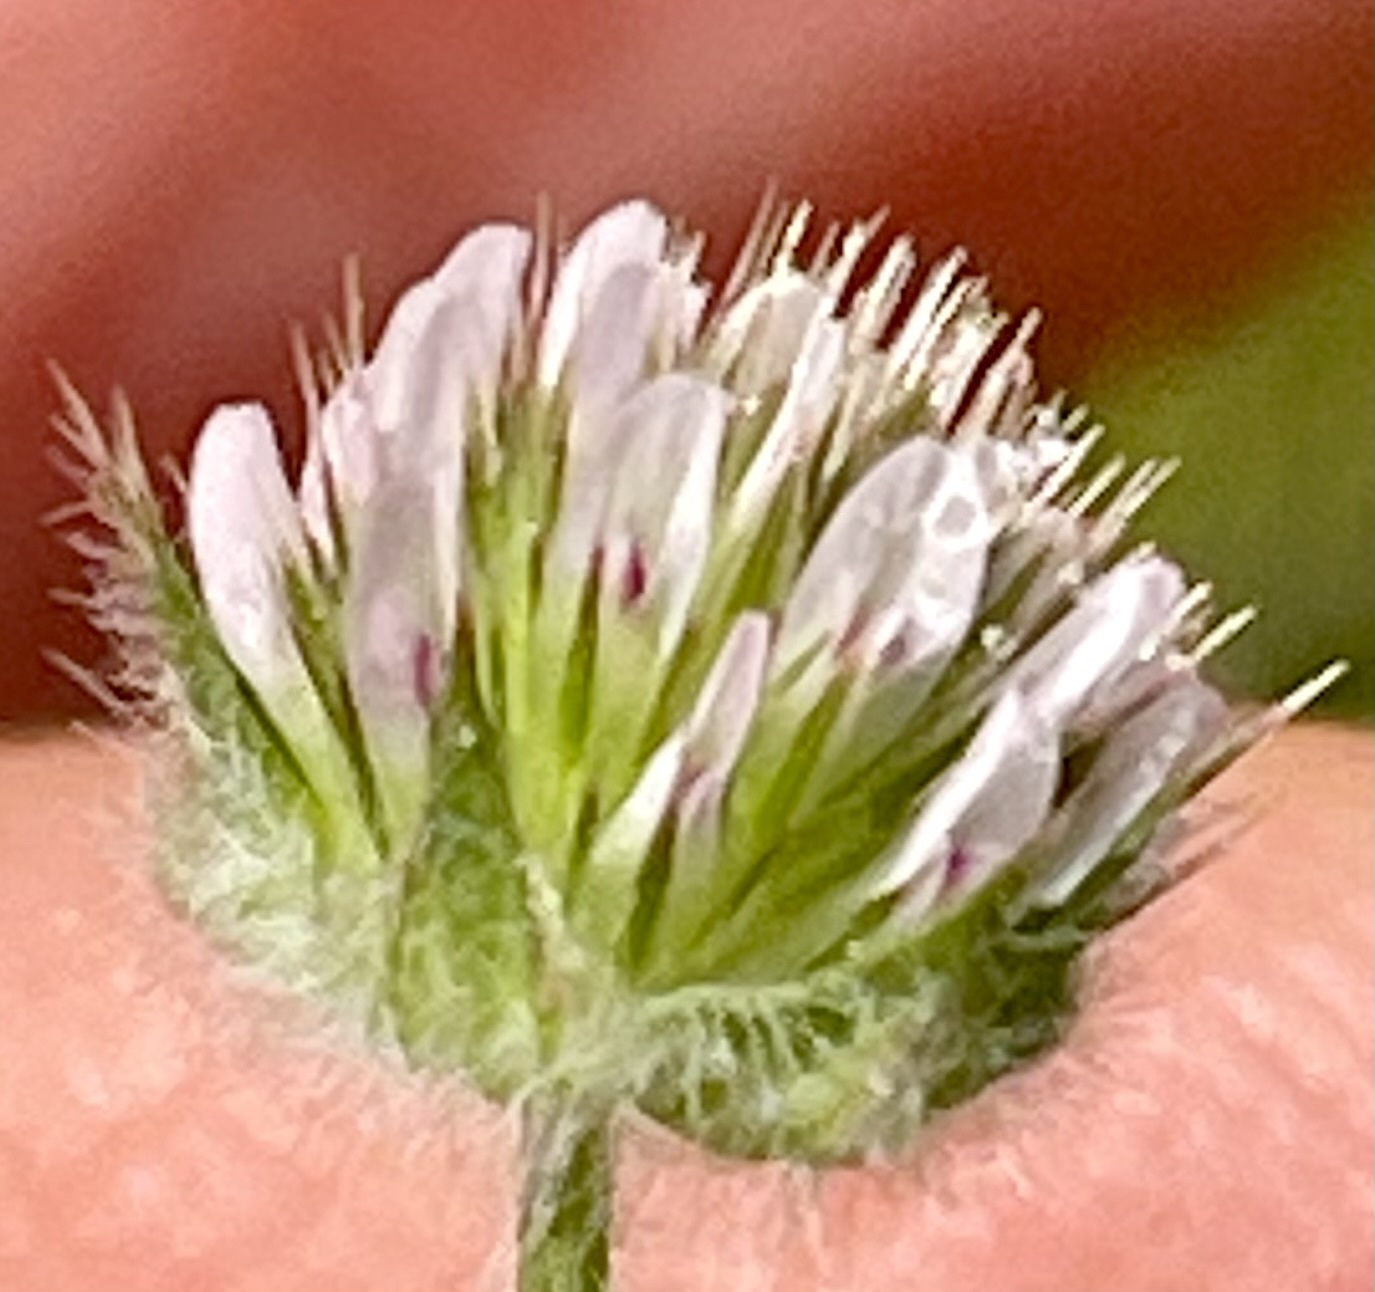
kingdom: Plantae
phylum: Tracheophyta
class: Magnoliopsida
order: Fabales
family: Fabaceae
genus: Trifolium
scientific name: Trifolium microcephalum
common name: Maiden clover
